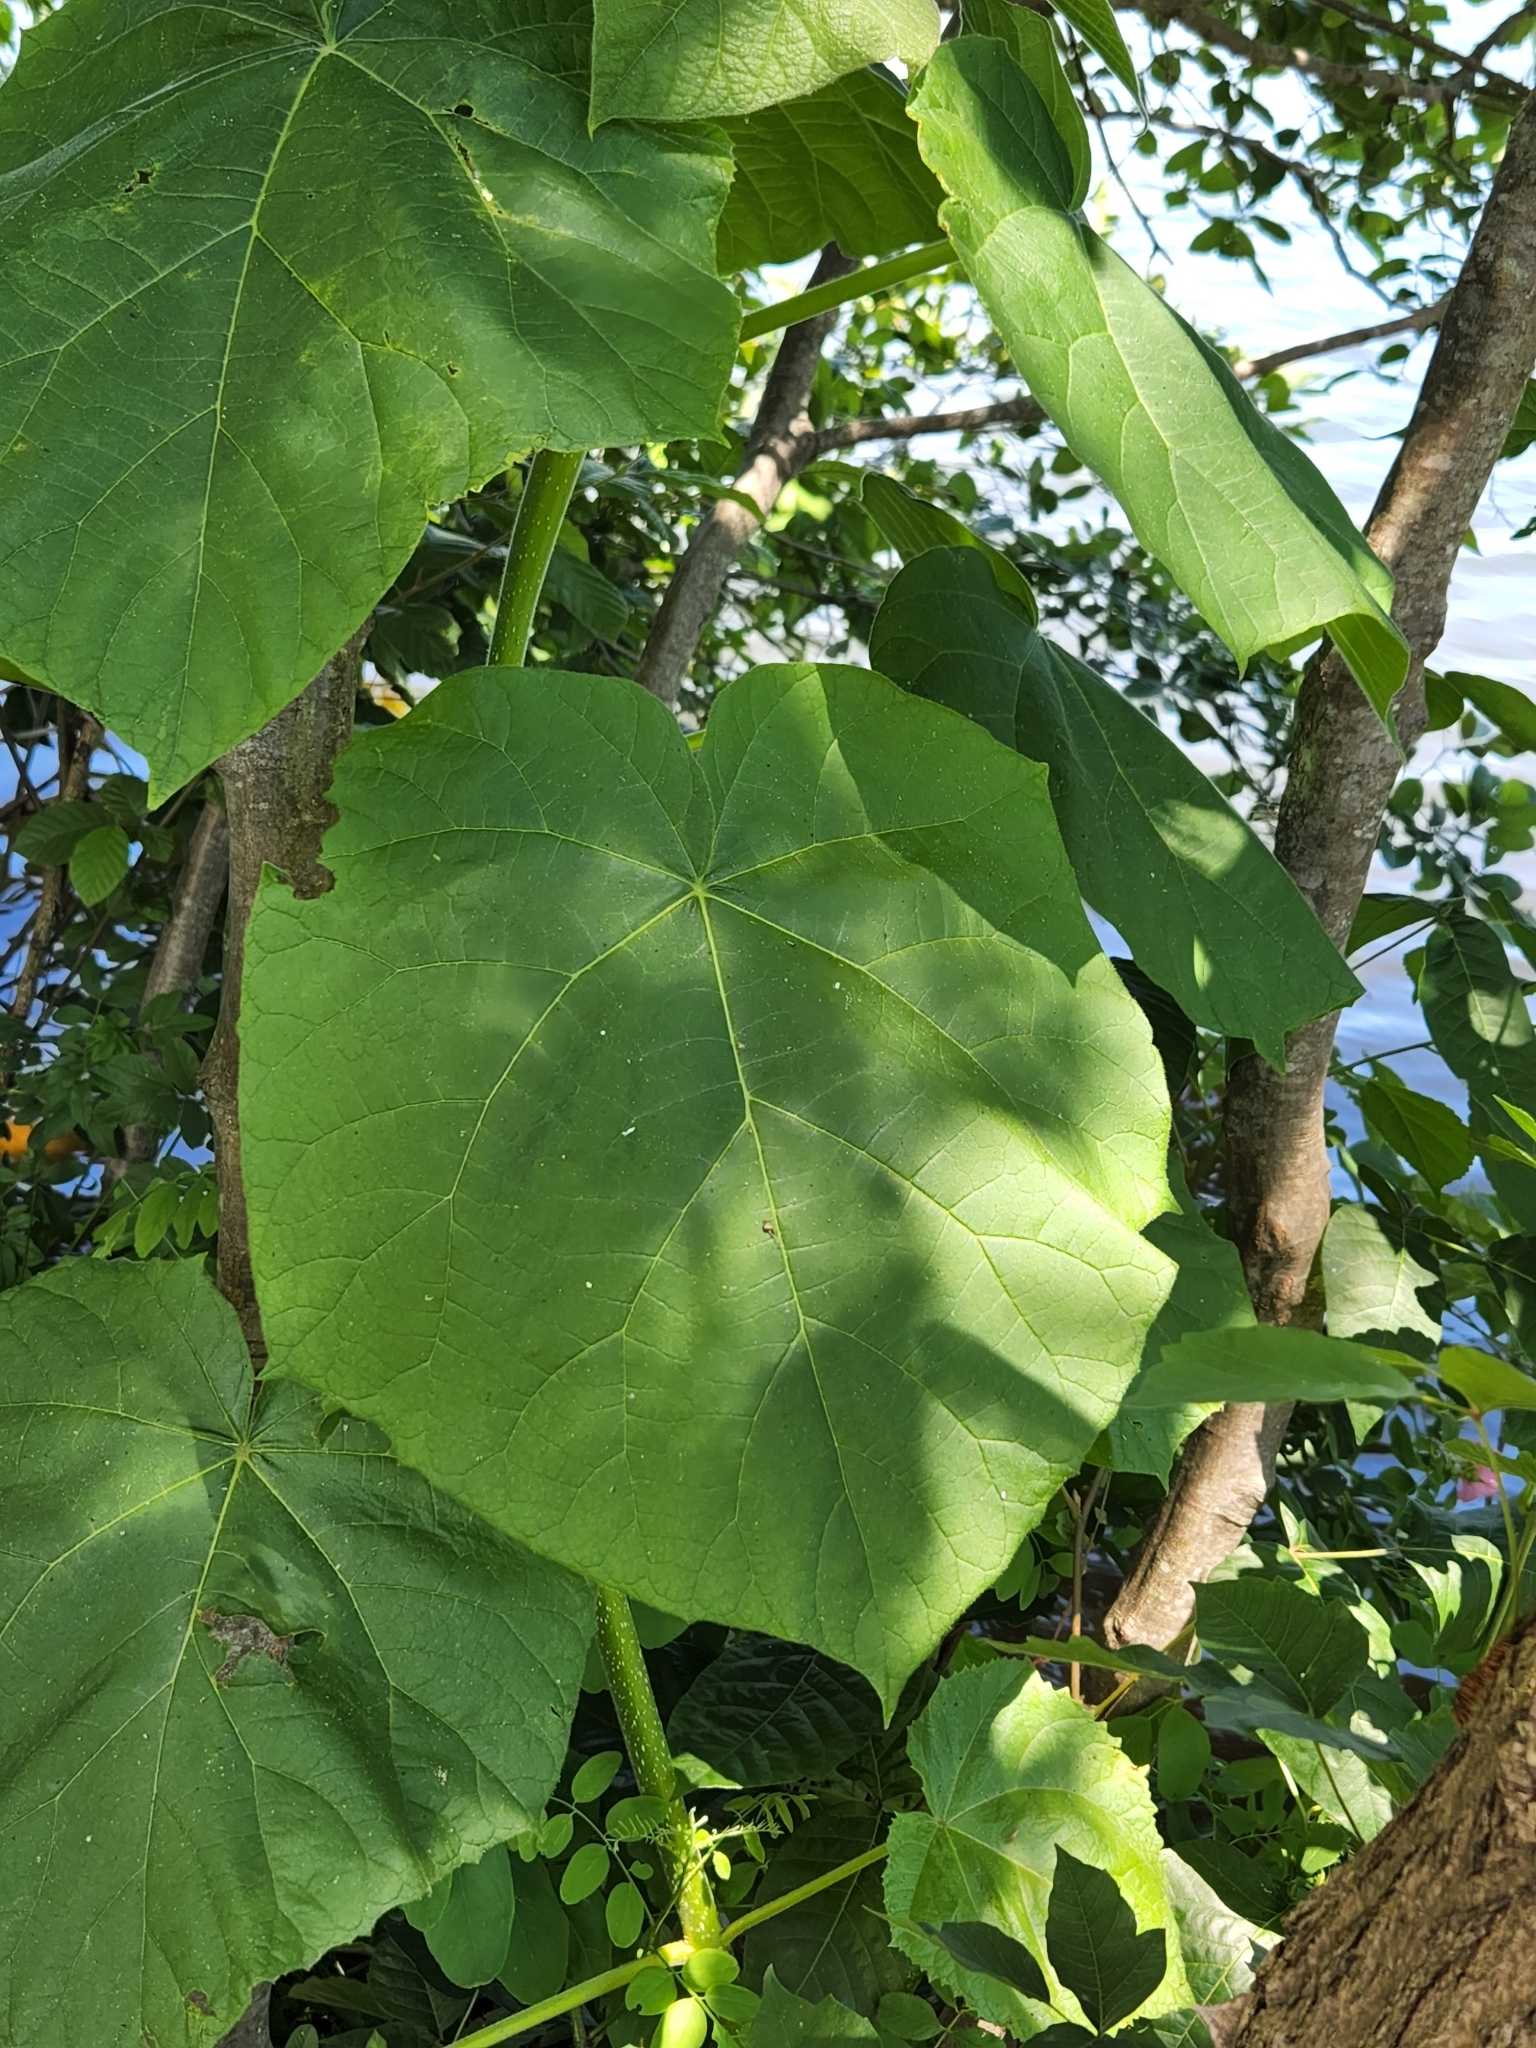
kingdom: Plantae
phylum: Tracheophyta
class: Magnoliopsida
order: Lamiales
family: Paulowniaceae
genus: Paulownia
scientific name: Paulownia tomentosa
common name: Foxglove-tree
